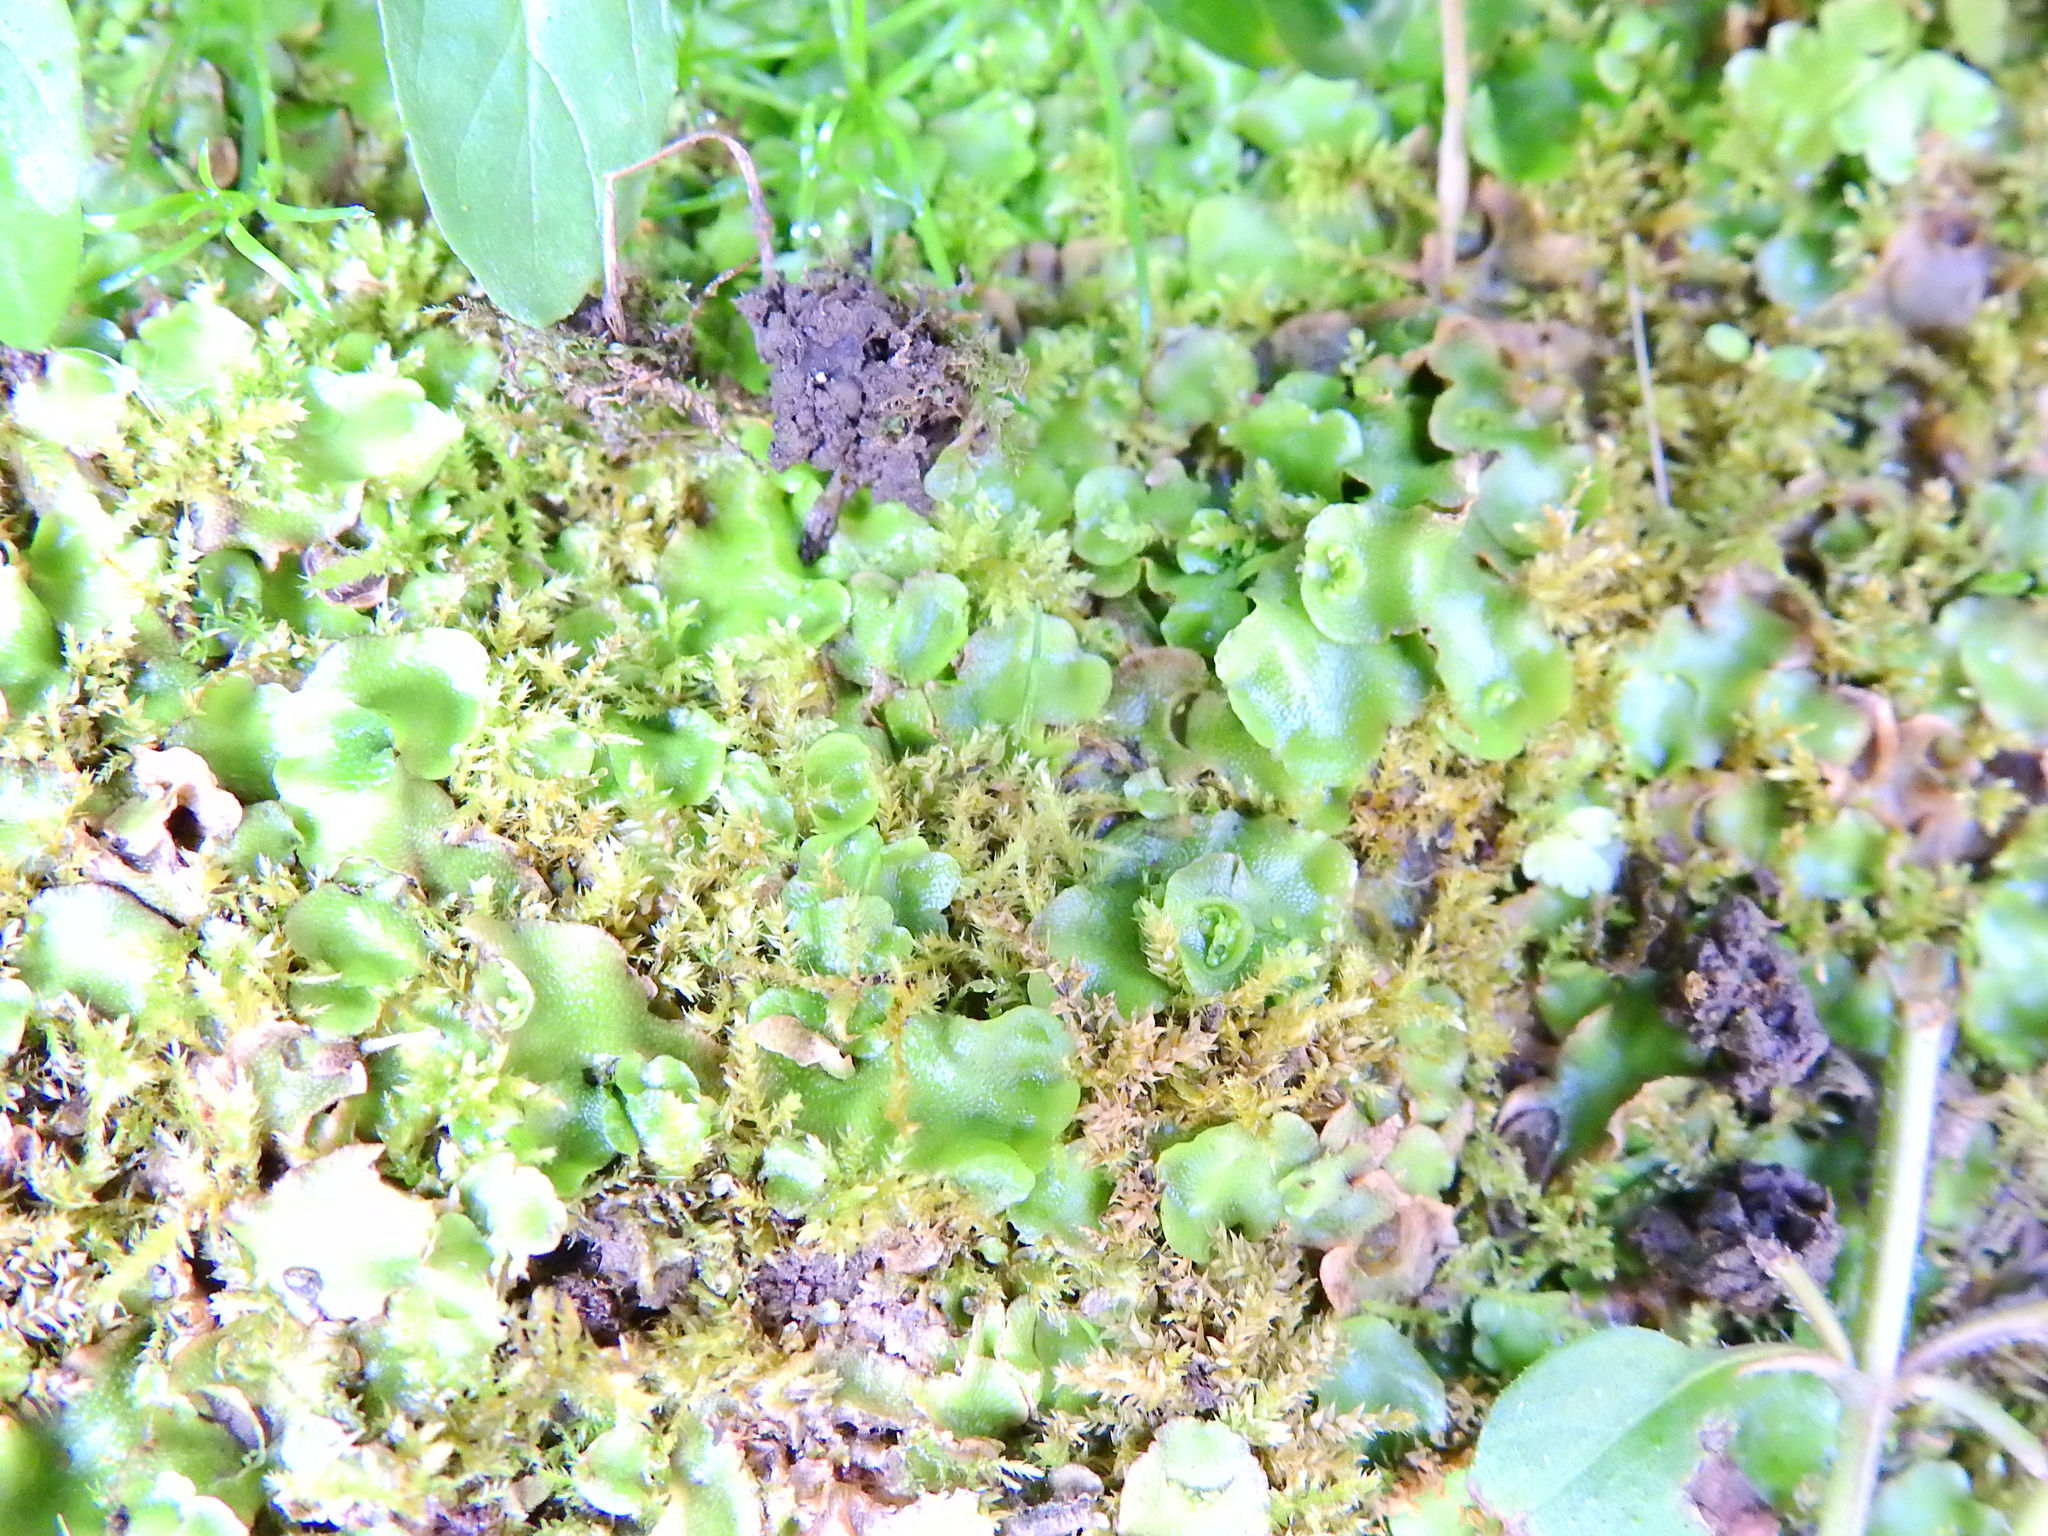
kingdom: Plantae
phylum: Marchantiophyta
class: Marchantiopsida
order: Lunulariales
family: Lunulariaceae
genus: Lunularia
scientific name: Lunularia cruciata
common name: Crescent-cup liverwort
